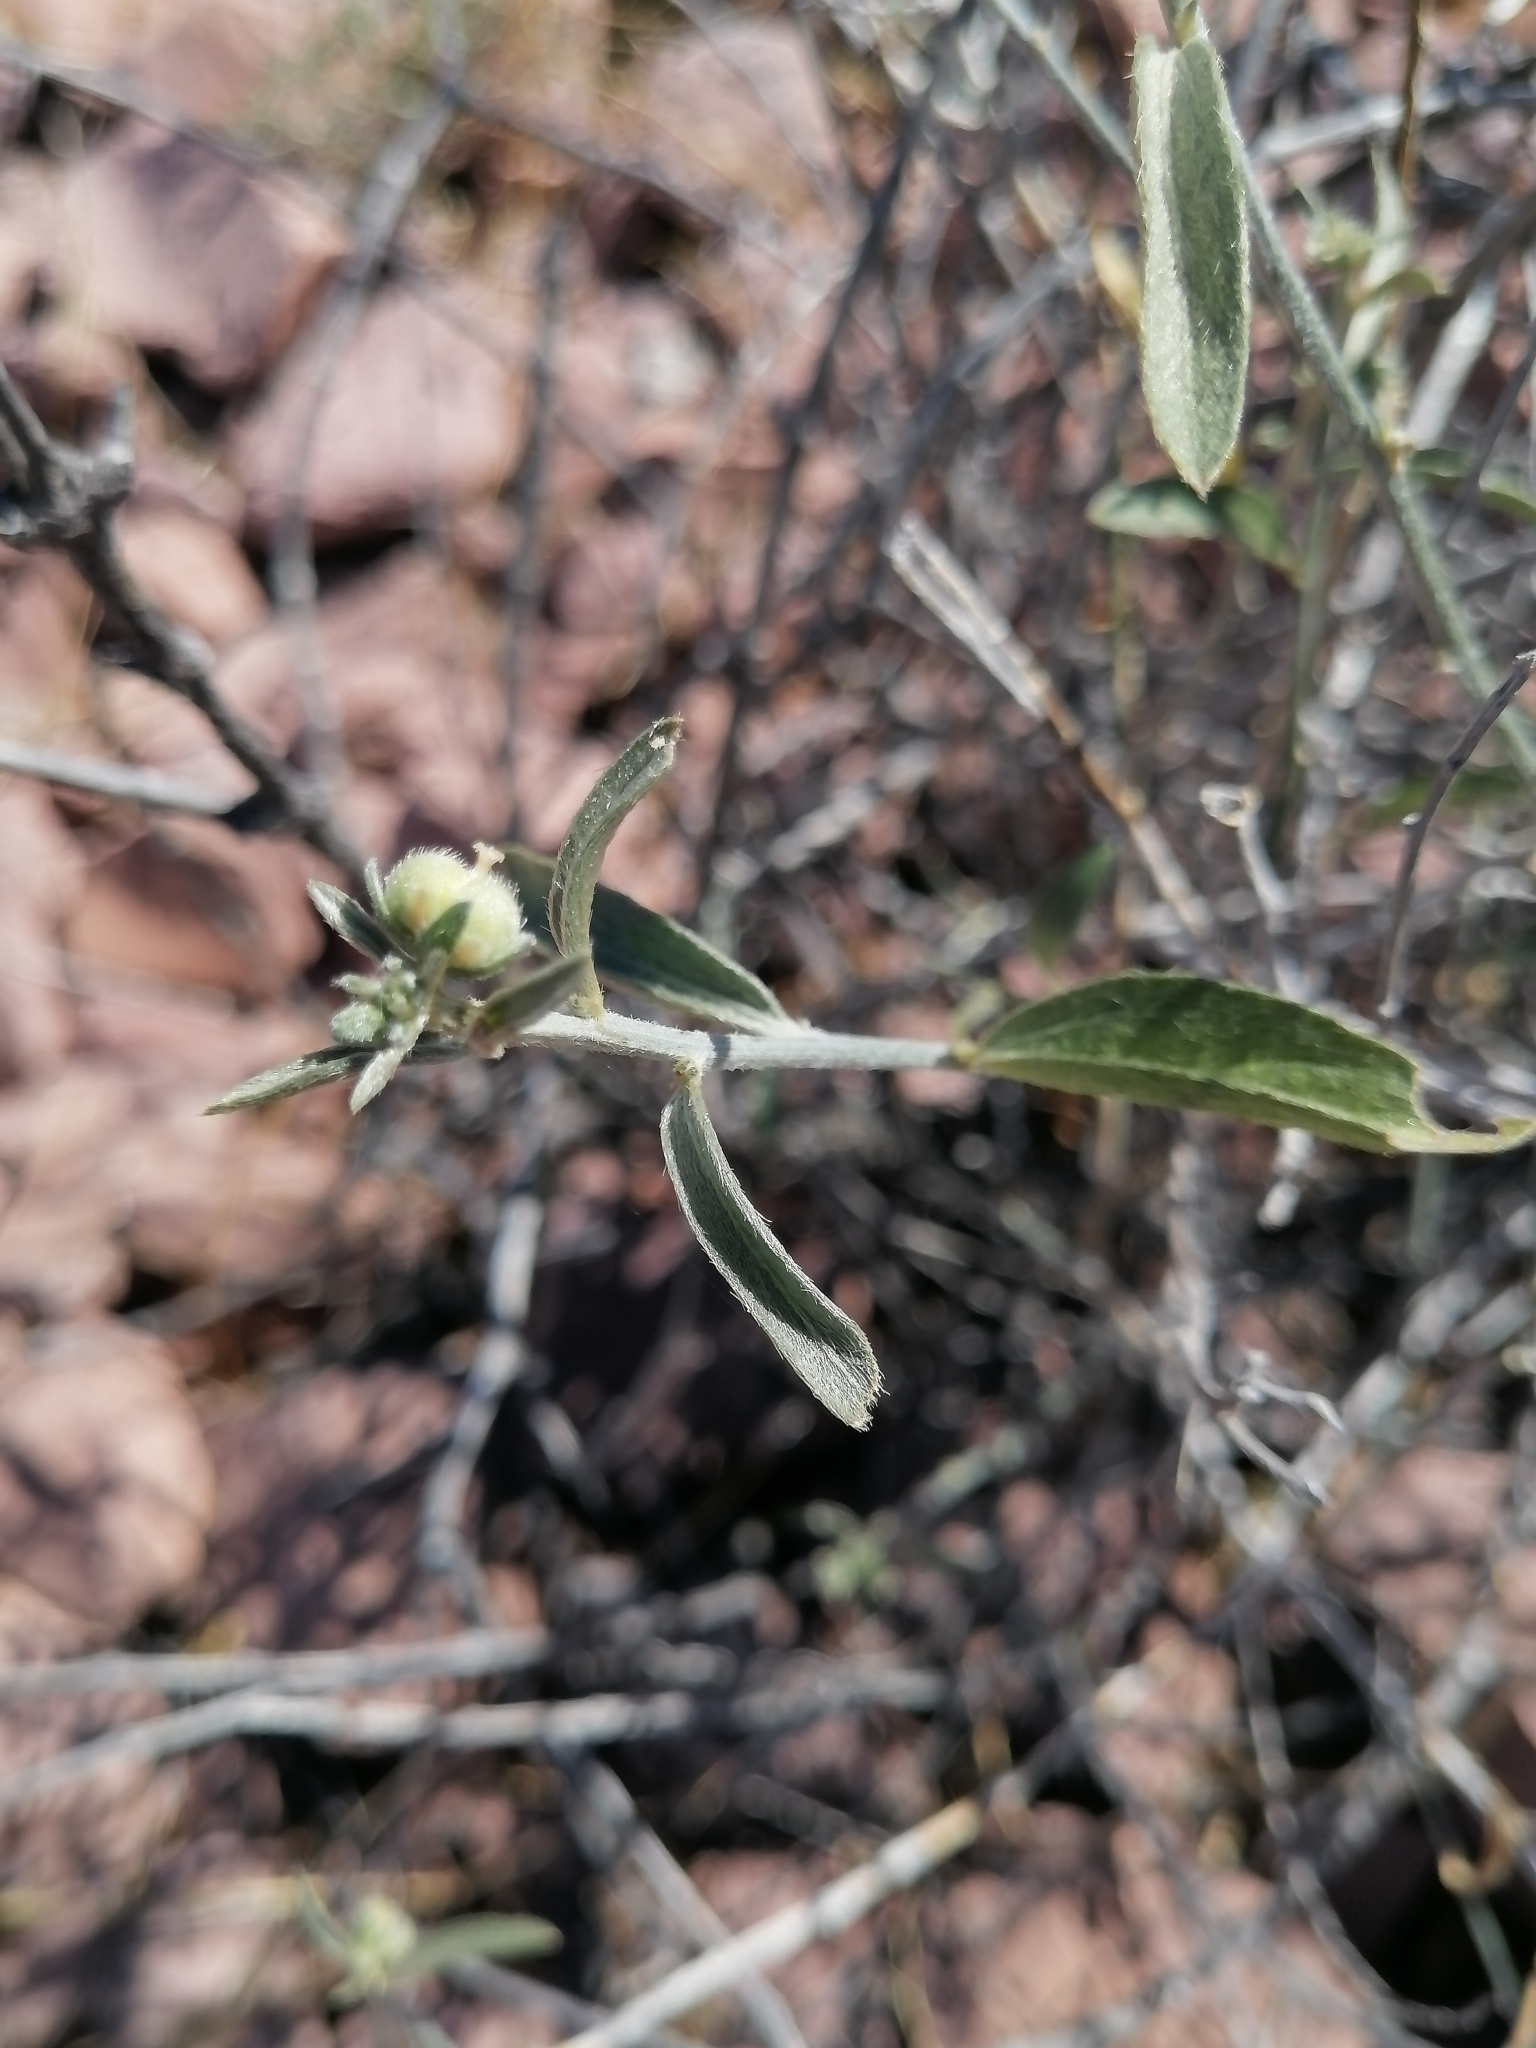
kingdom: Plantae
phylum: Tracheophyta
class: Magnoliopsida
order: Malpighiales
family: Euphorbiaceae
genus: Ditaxis
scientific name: Ditaxis lanceolata
